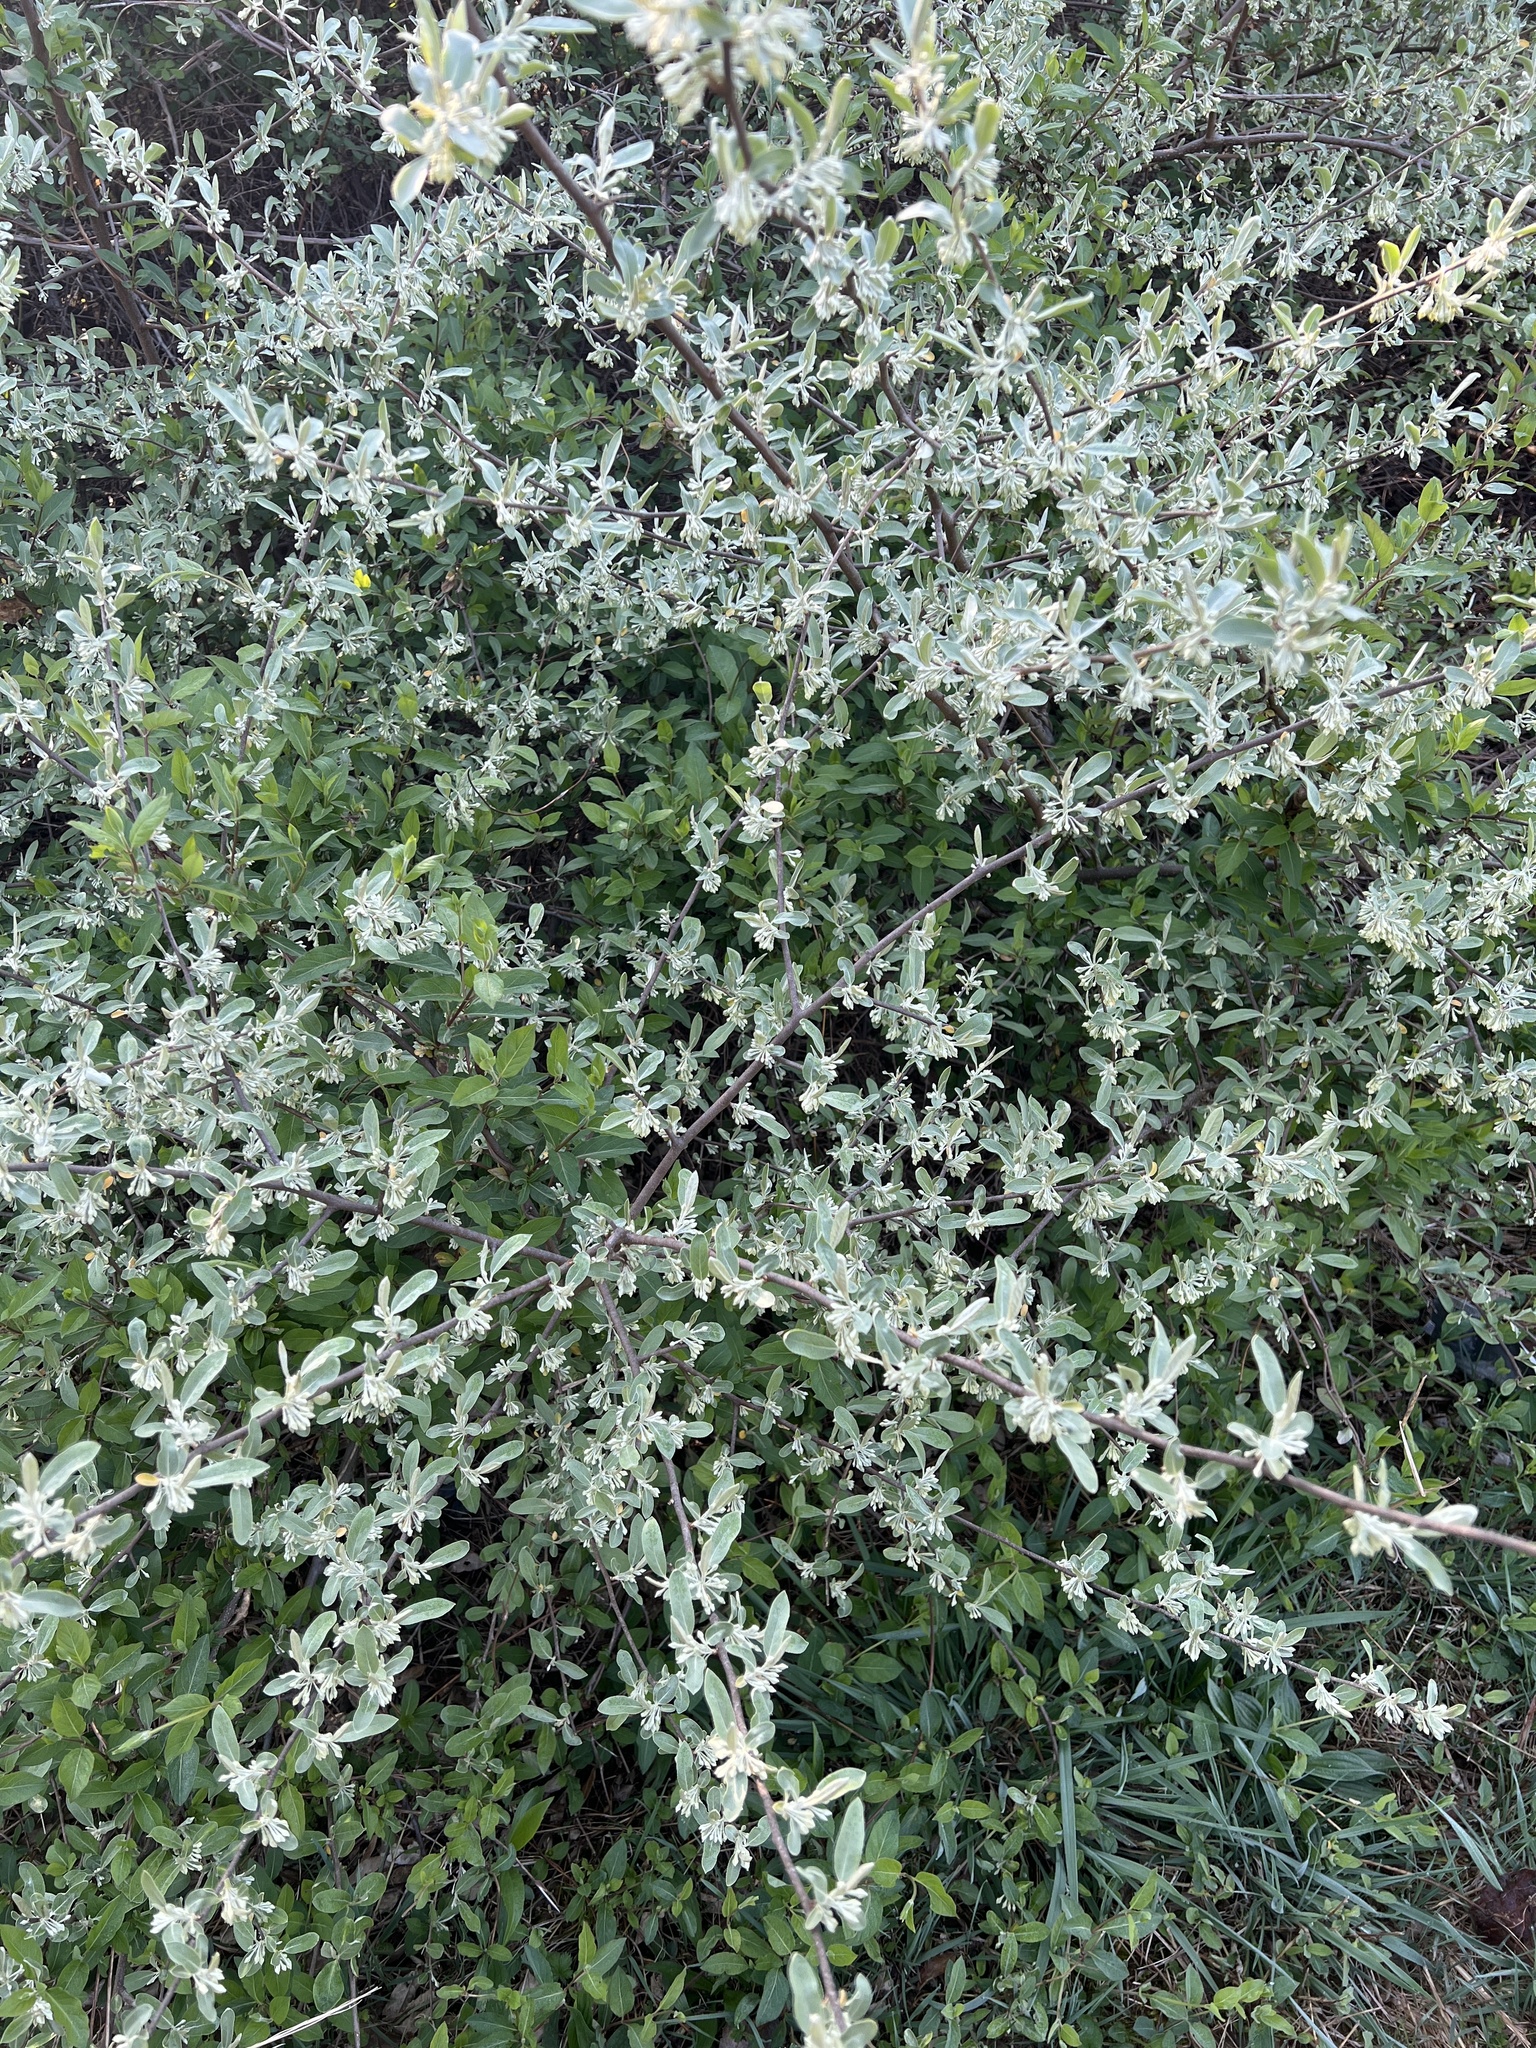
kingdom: Plantae
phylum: Tracheophyta
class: Magnoliopsida
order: Rosales
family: Elaeagnaceae
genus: Elaeagnus
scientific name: Elaeagnus umbellata
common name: Autumn olive
